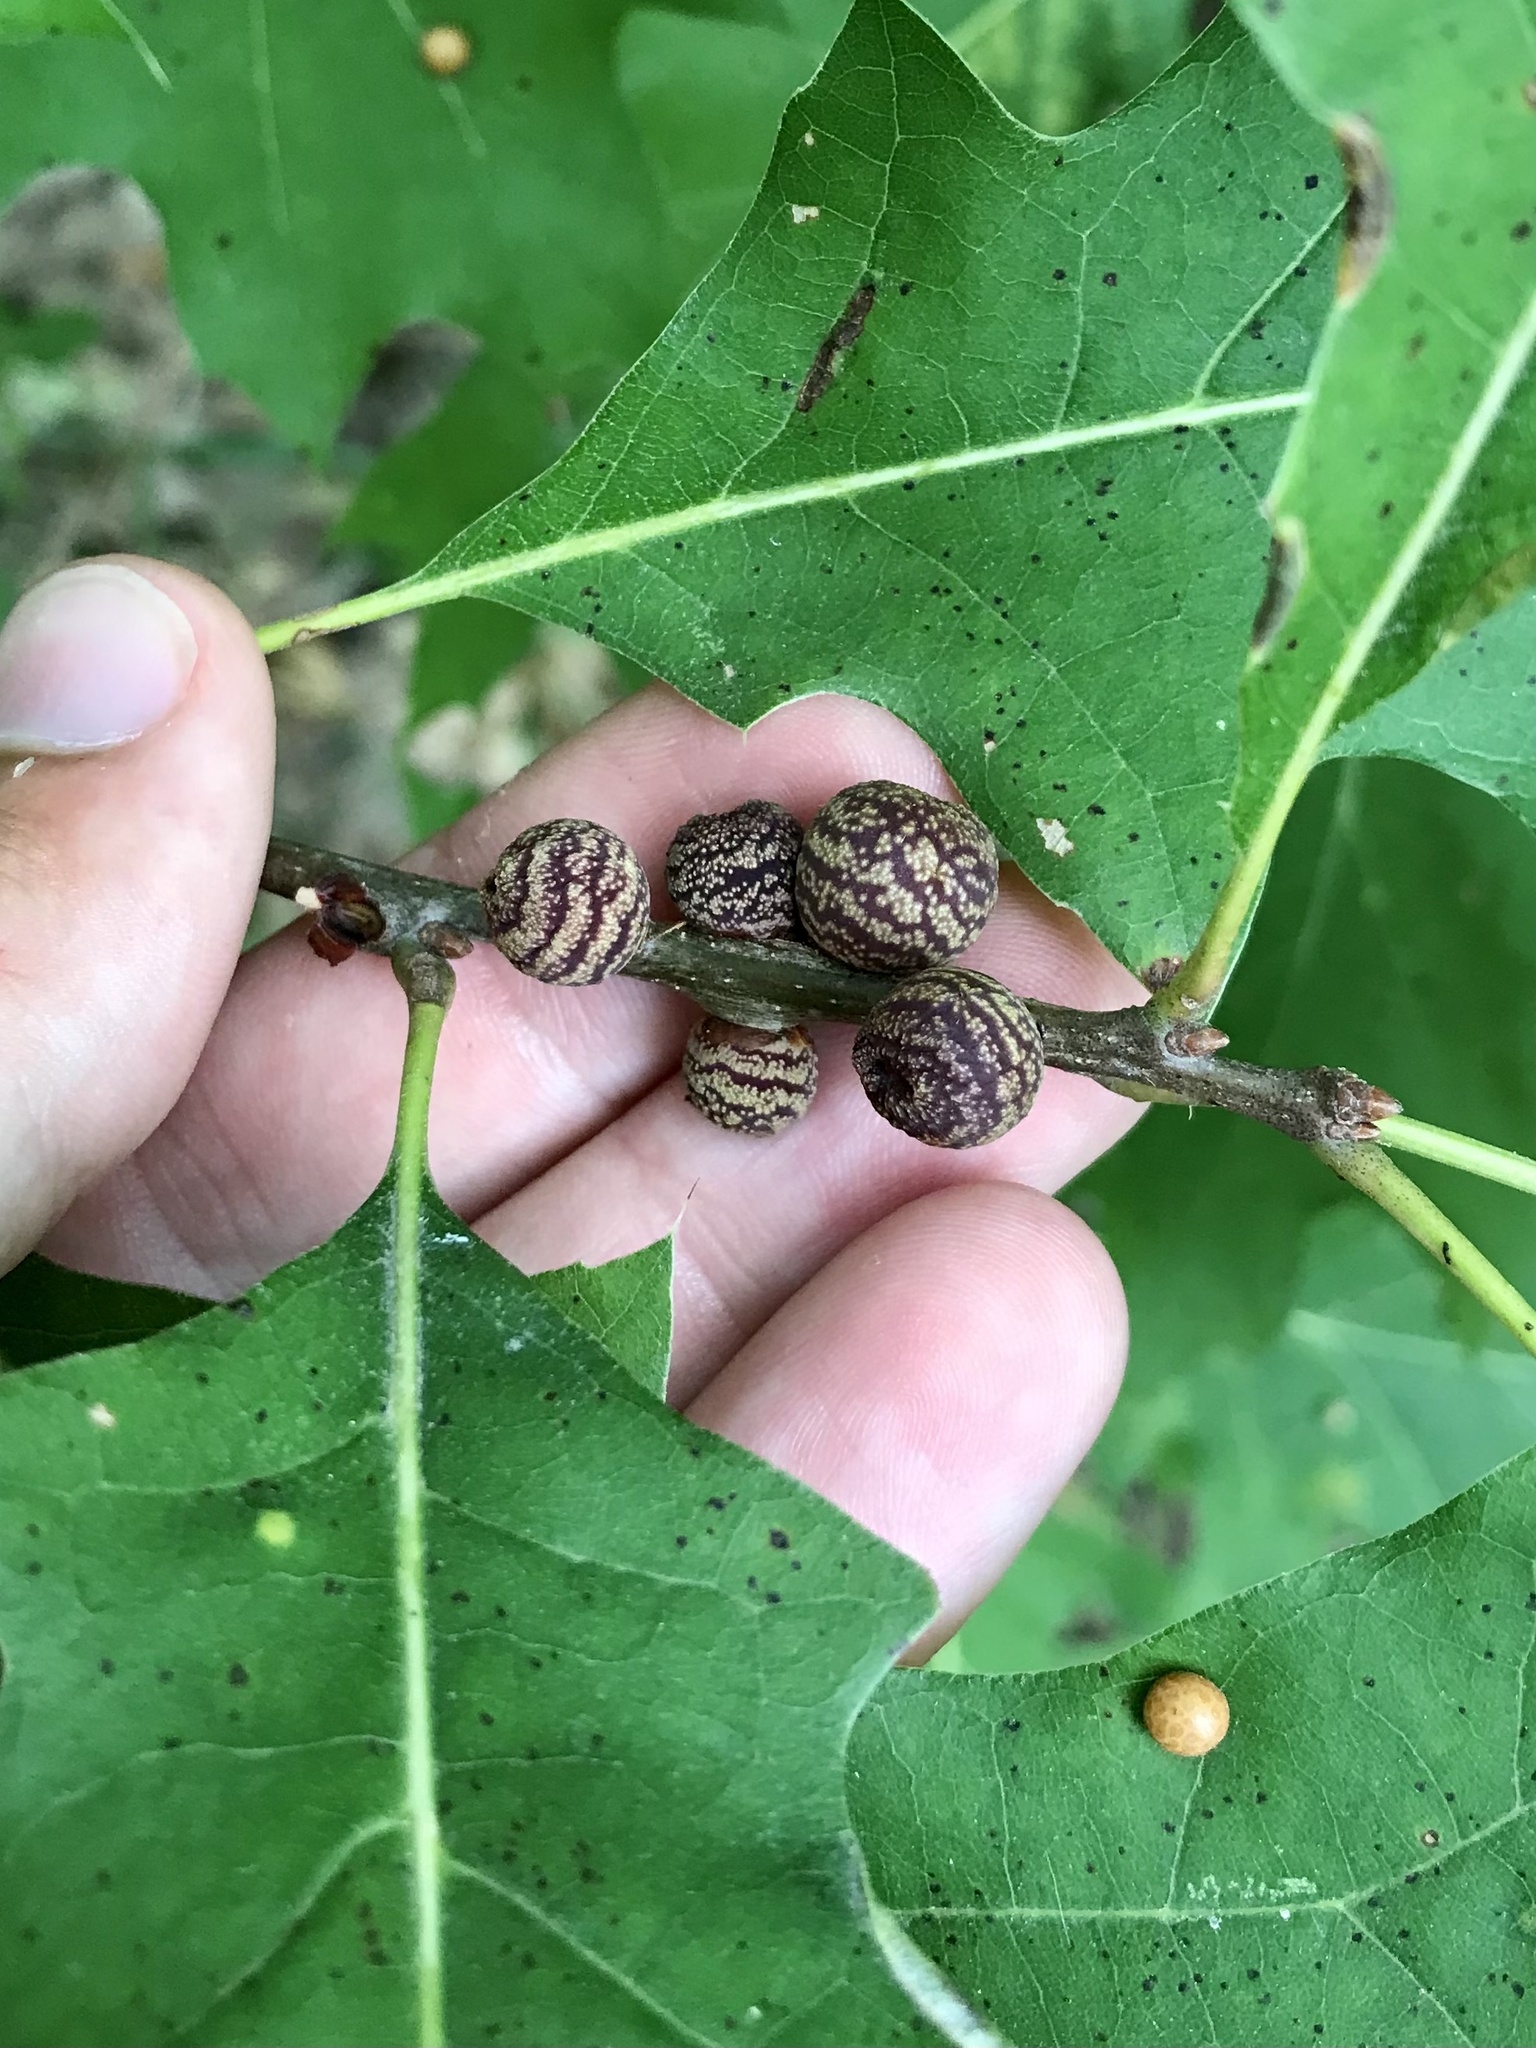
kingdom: Animalia
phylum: Arthropoda
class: Insecta
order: Hymenoptera
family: Cynipidae
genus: Kokkocynips
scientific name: Kokkocynips imbricariae
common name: Banded bullet gall wasp
